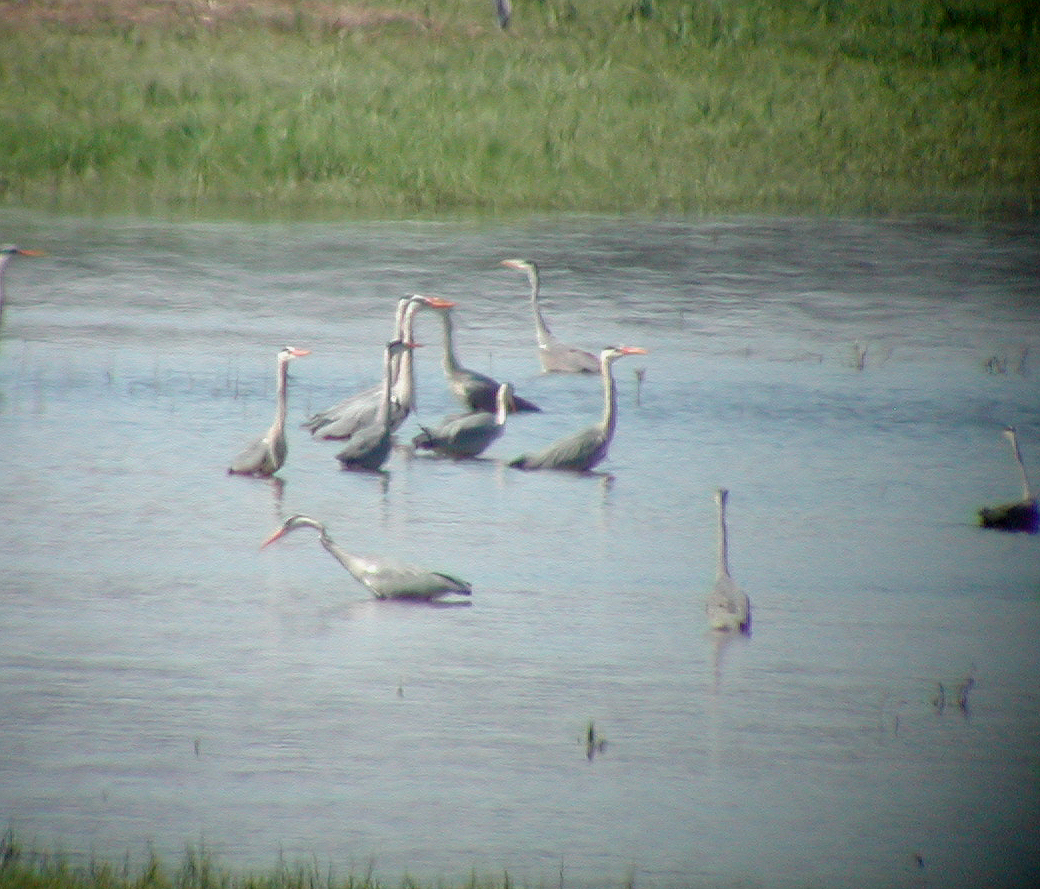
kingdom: Animalia
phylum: Chordata
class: Aves
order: Pelecaniformes
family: Ardeidae
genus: Ardea
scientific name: Ardea cinerea
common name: Grey heron
